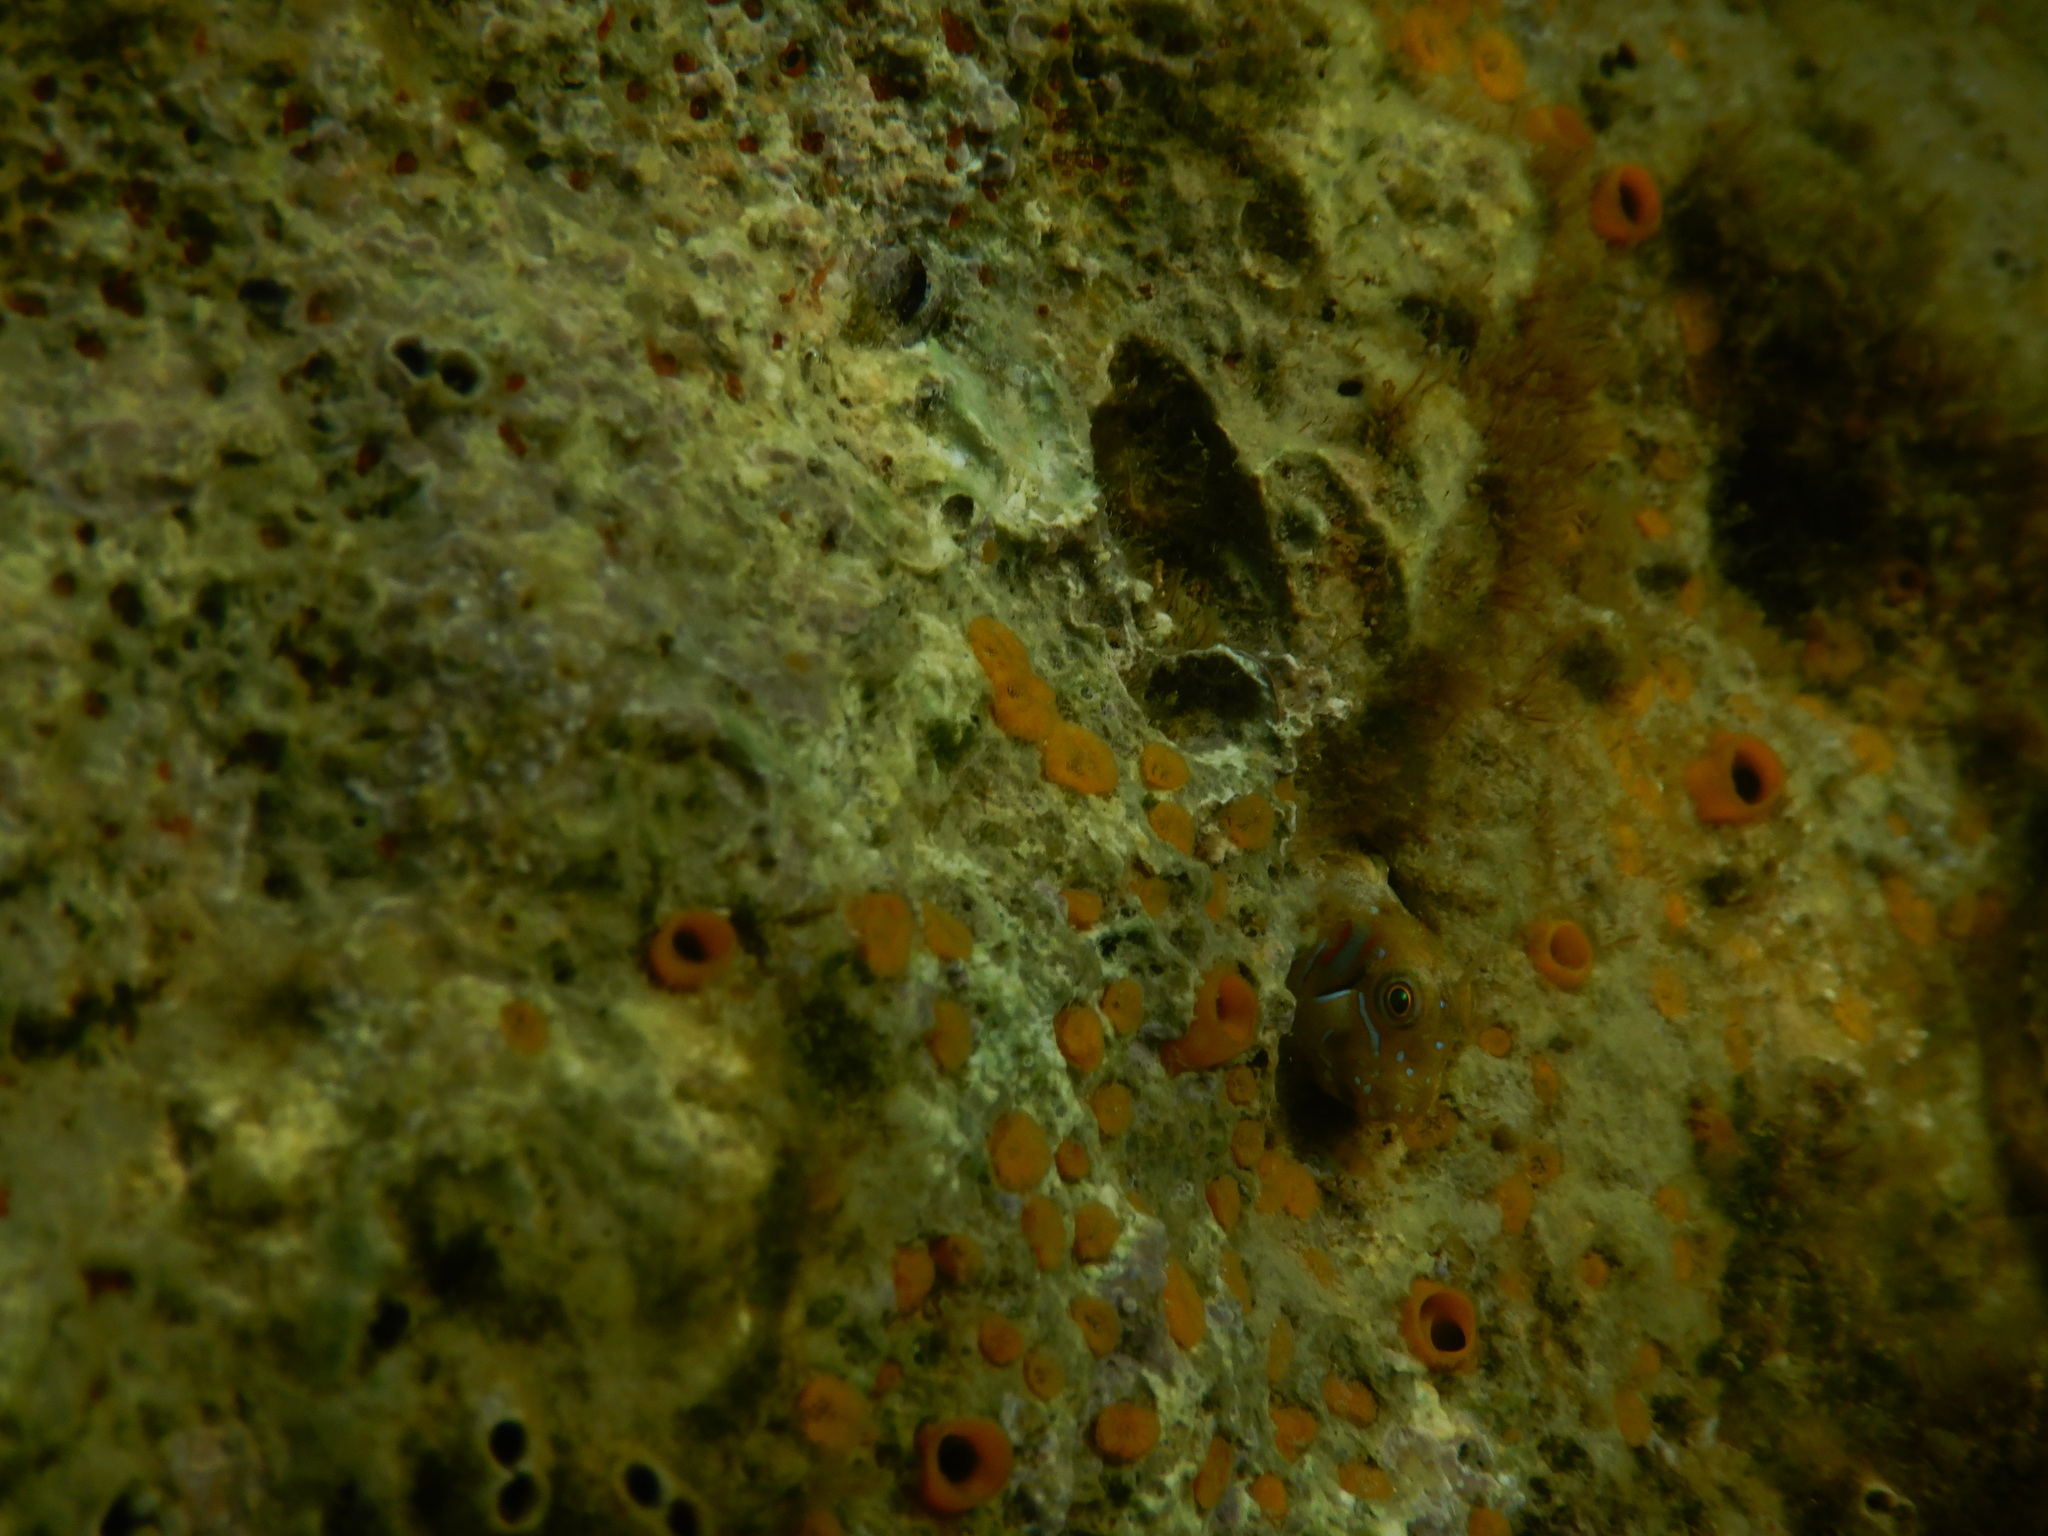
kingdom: Animalia
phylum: Chordata
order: Perciformes
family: Blenniidae
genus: Aidablennius
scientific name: Aidablennius sphynx
